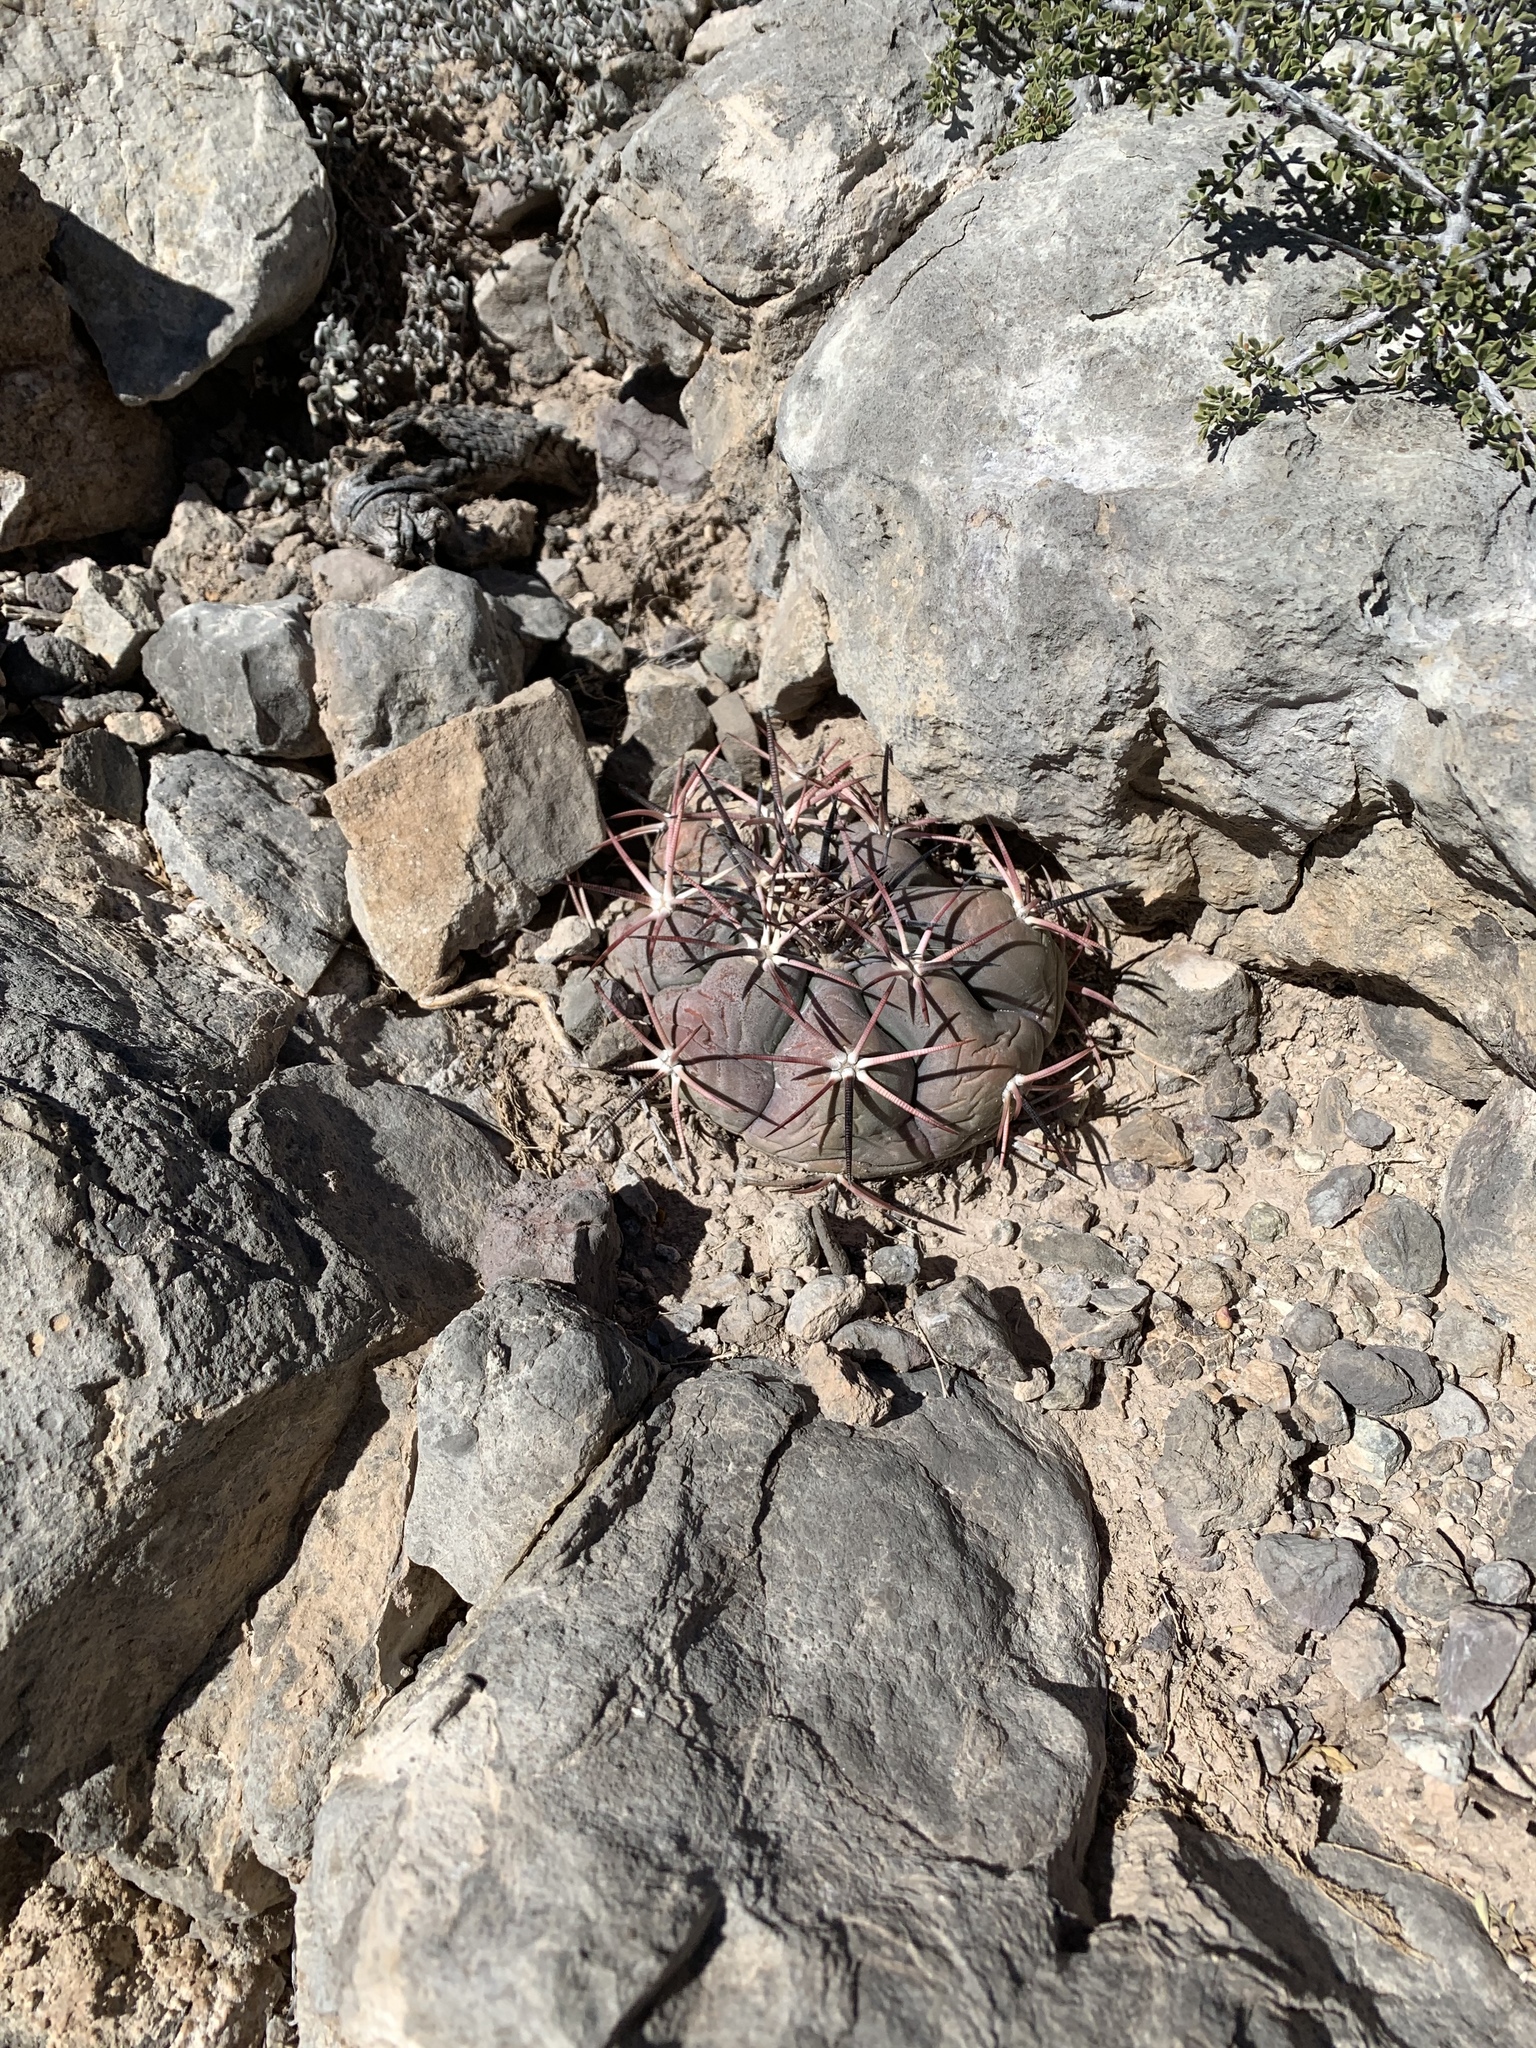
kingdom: Plantae
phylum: Tracheophyta
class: Magnoliopsida
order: Caryophyllales
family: Cactaceae
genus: Echinocactus
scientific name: Echinocactus horizonthalonius
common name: Devilshead
